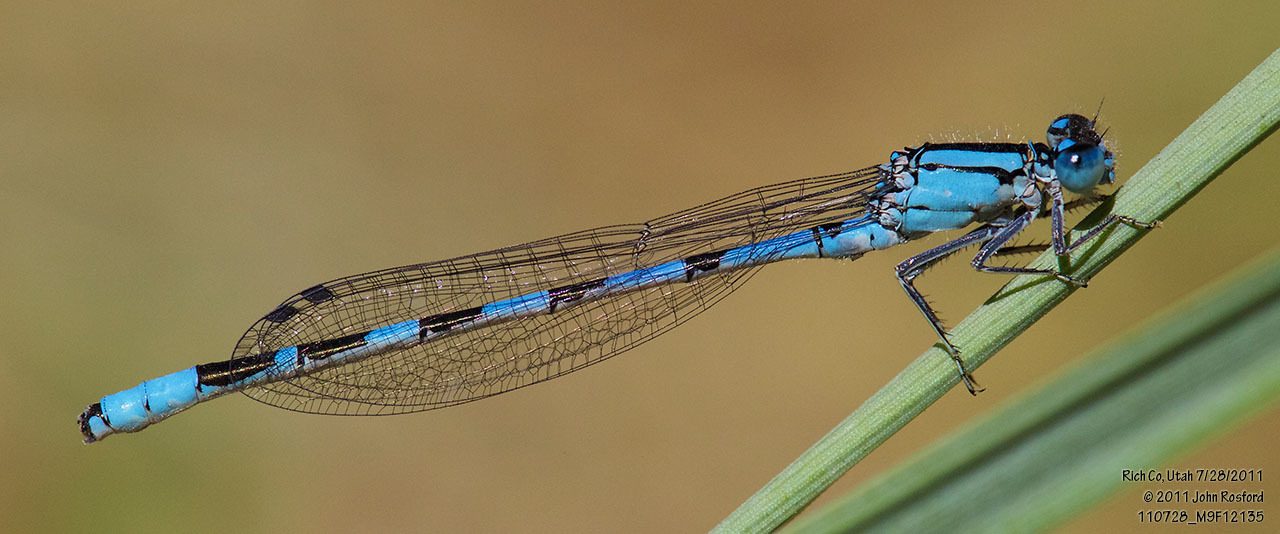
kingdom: Animalia
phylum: Arthropoda
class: Insecta
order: Odonata
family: Coenagrionidae
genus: Enallagma
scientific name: Enallagma clausum
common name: Alkali bluet
